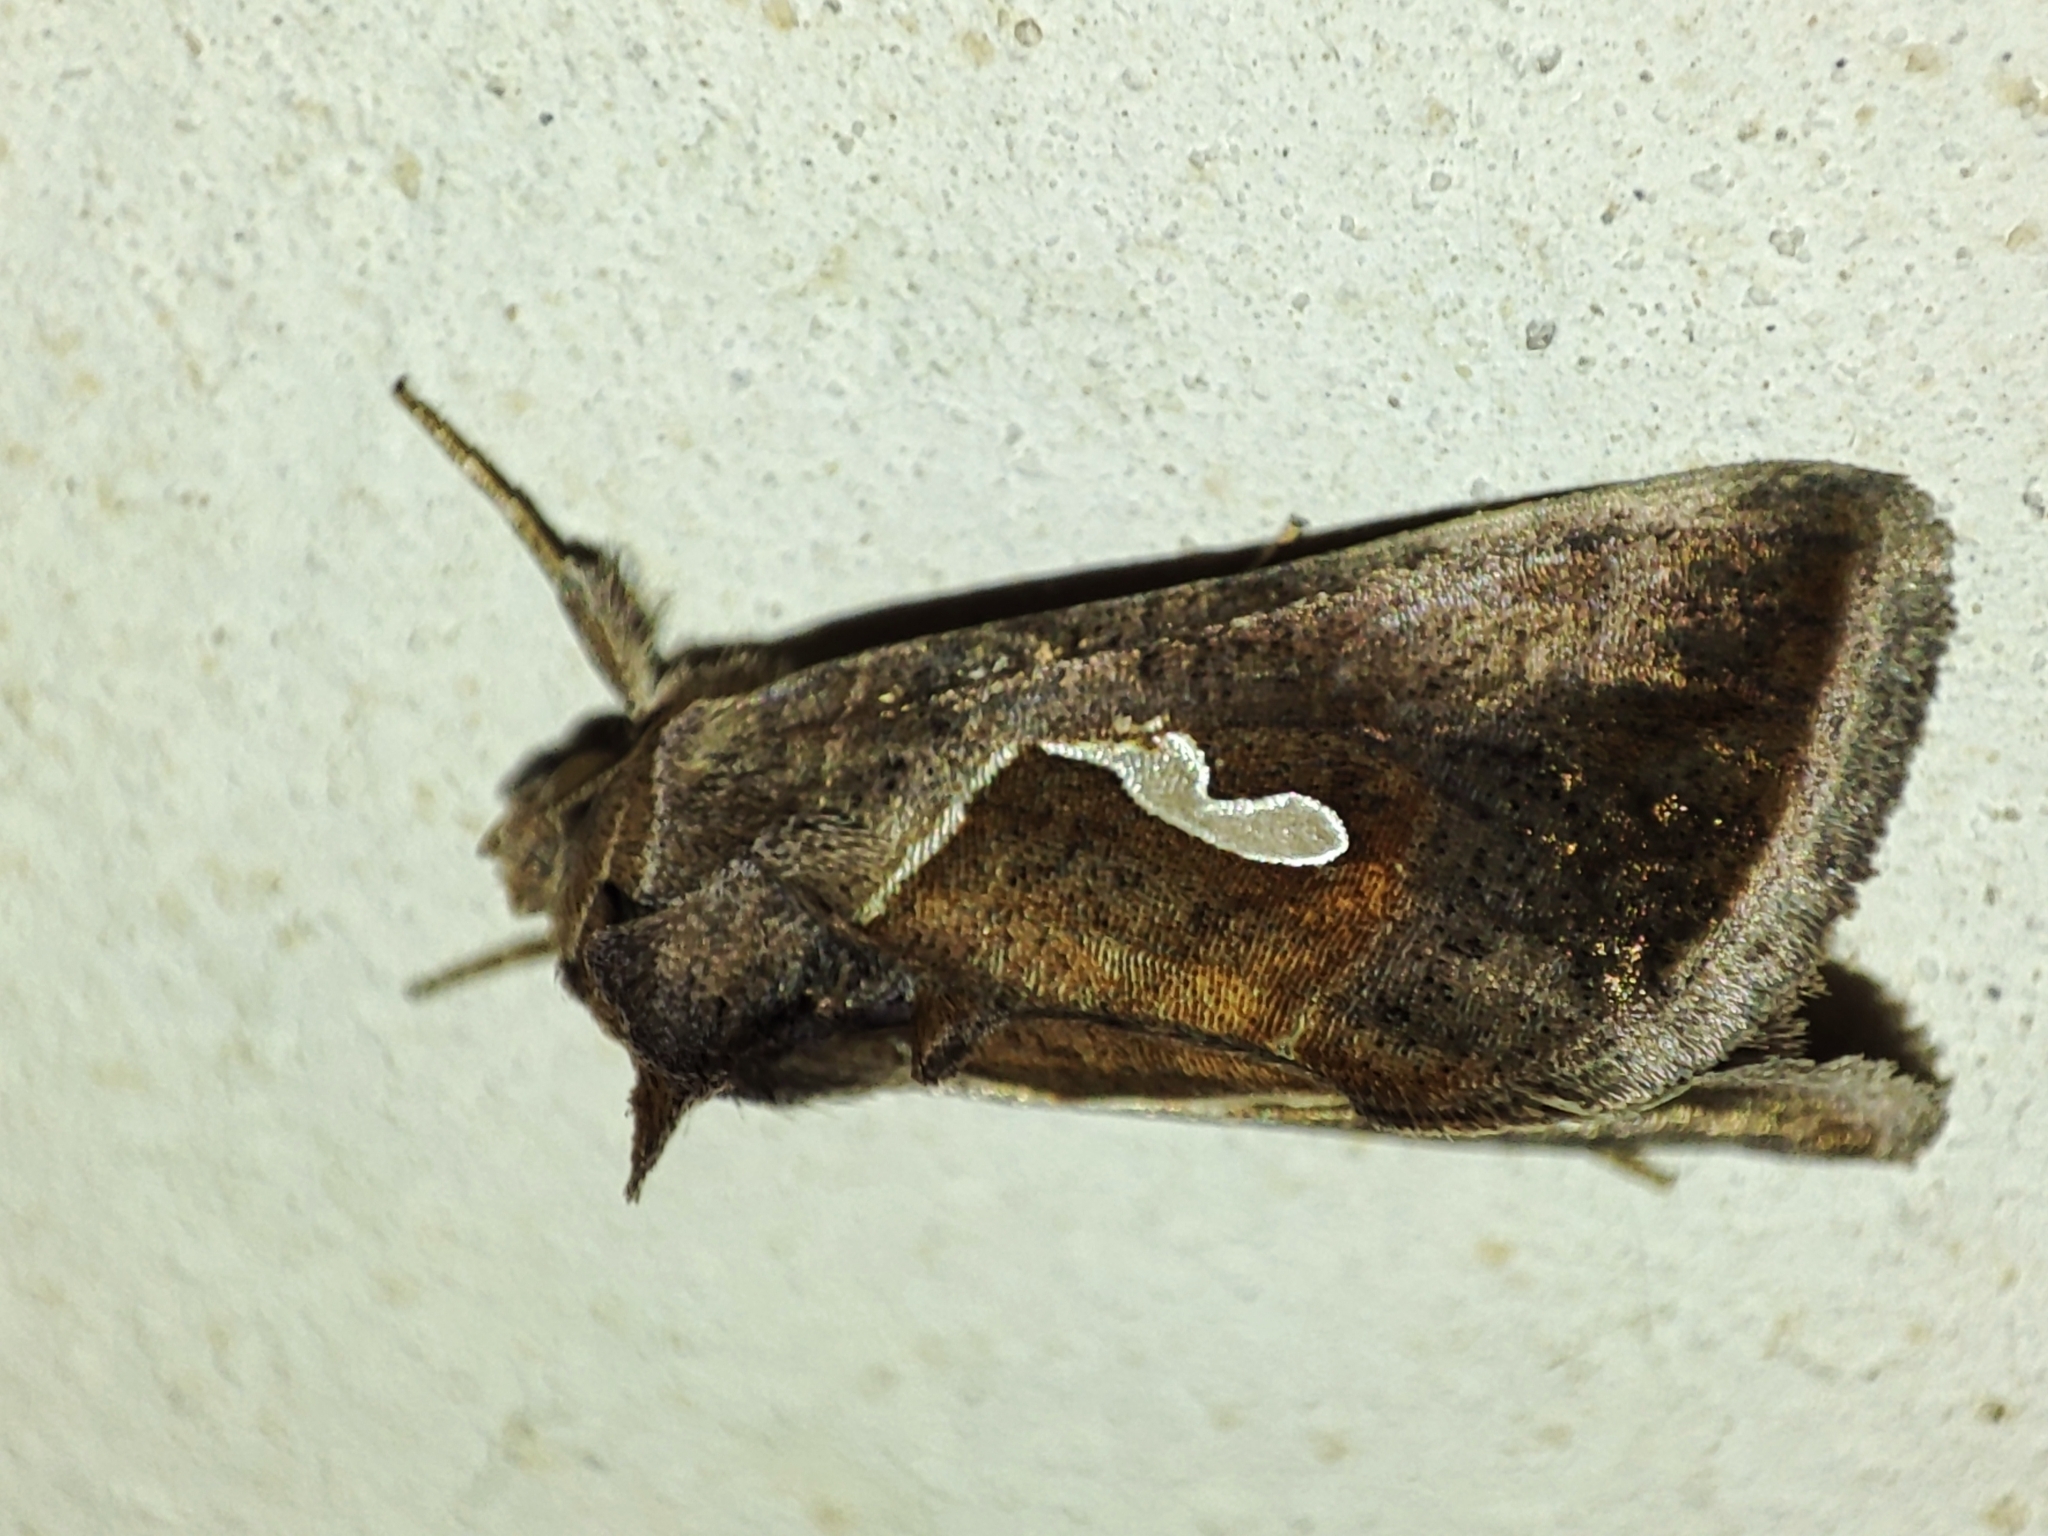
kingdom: Animalia
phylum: Arthropoda
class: Insecta
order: Lepidoptera
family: Noctuidae
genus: Macdunnoughia
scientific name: Macdunnoughia confusa
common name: Dewick's plusia
